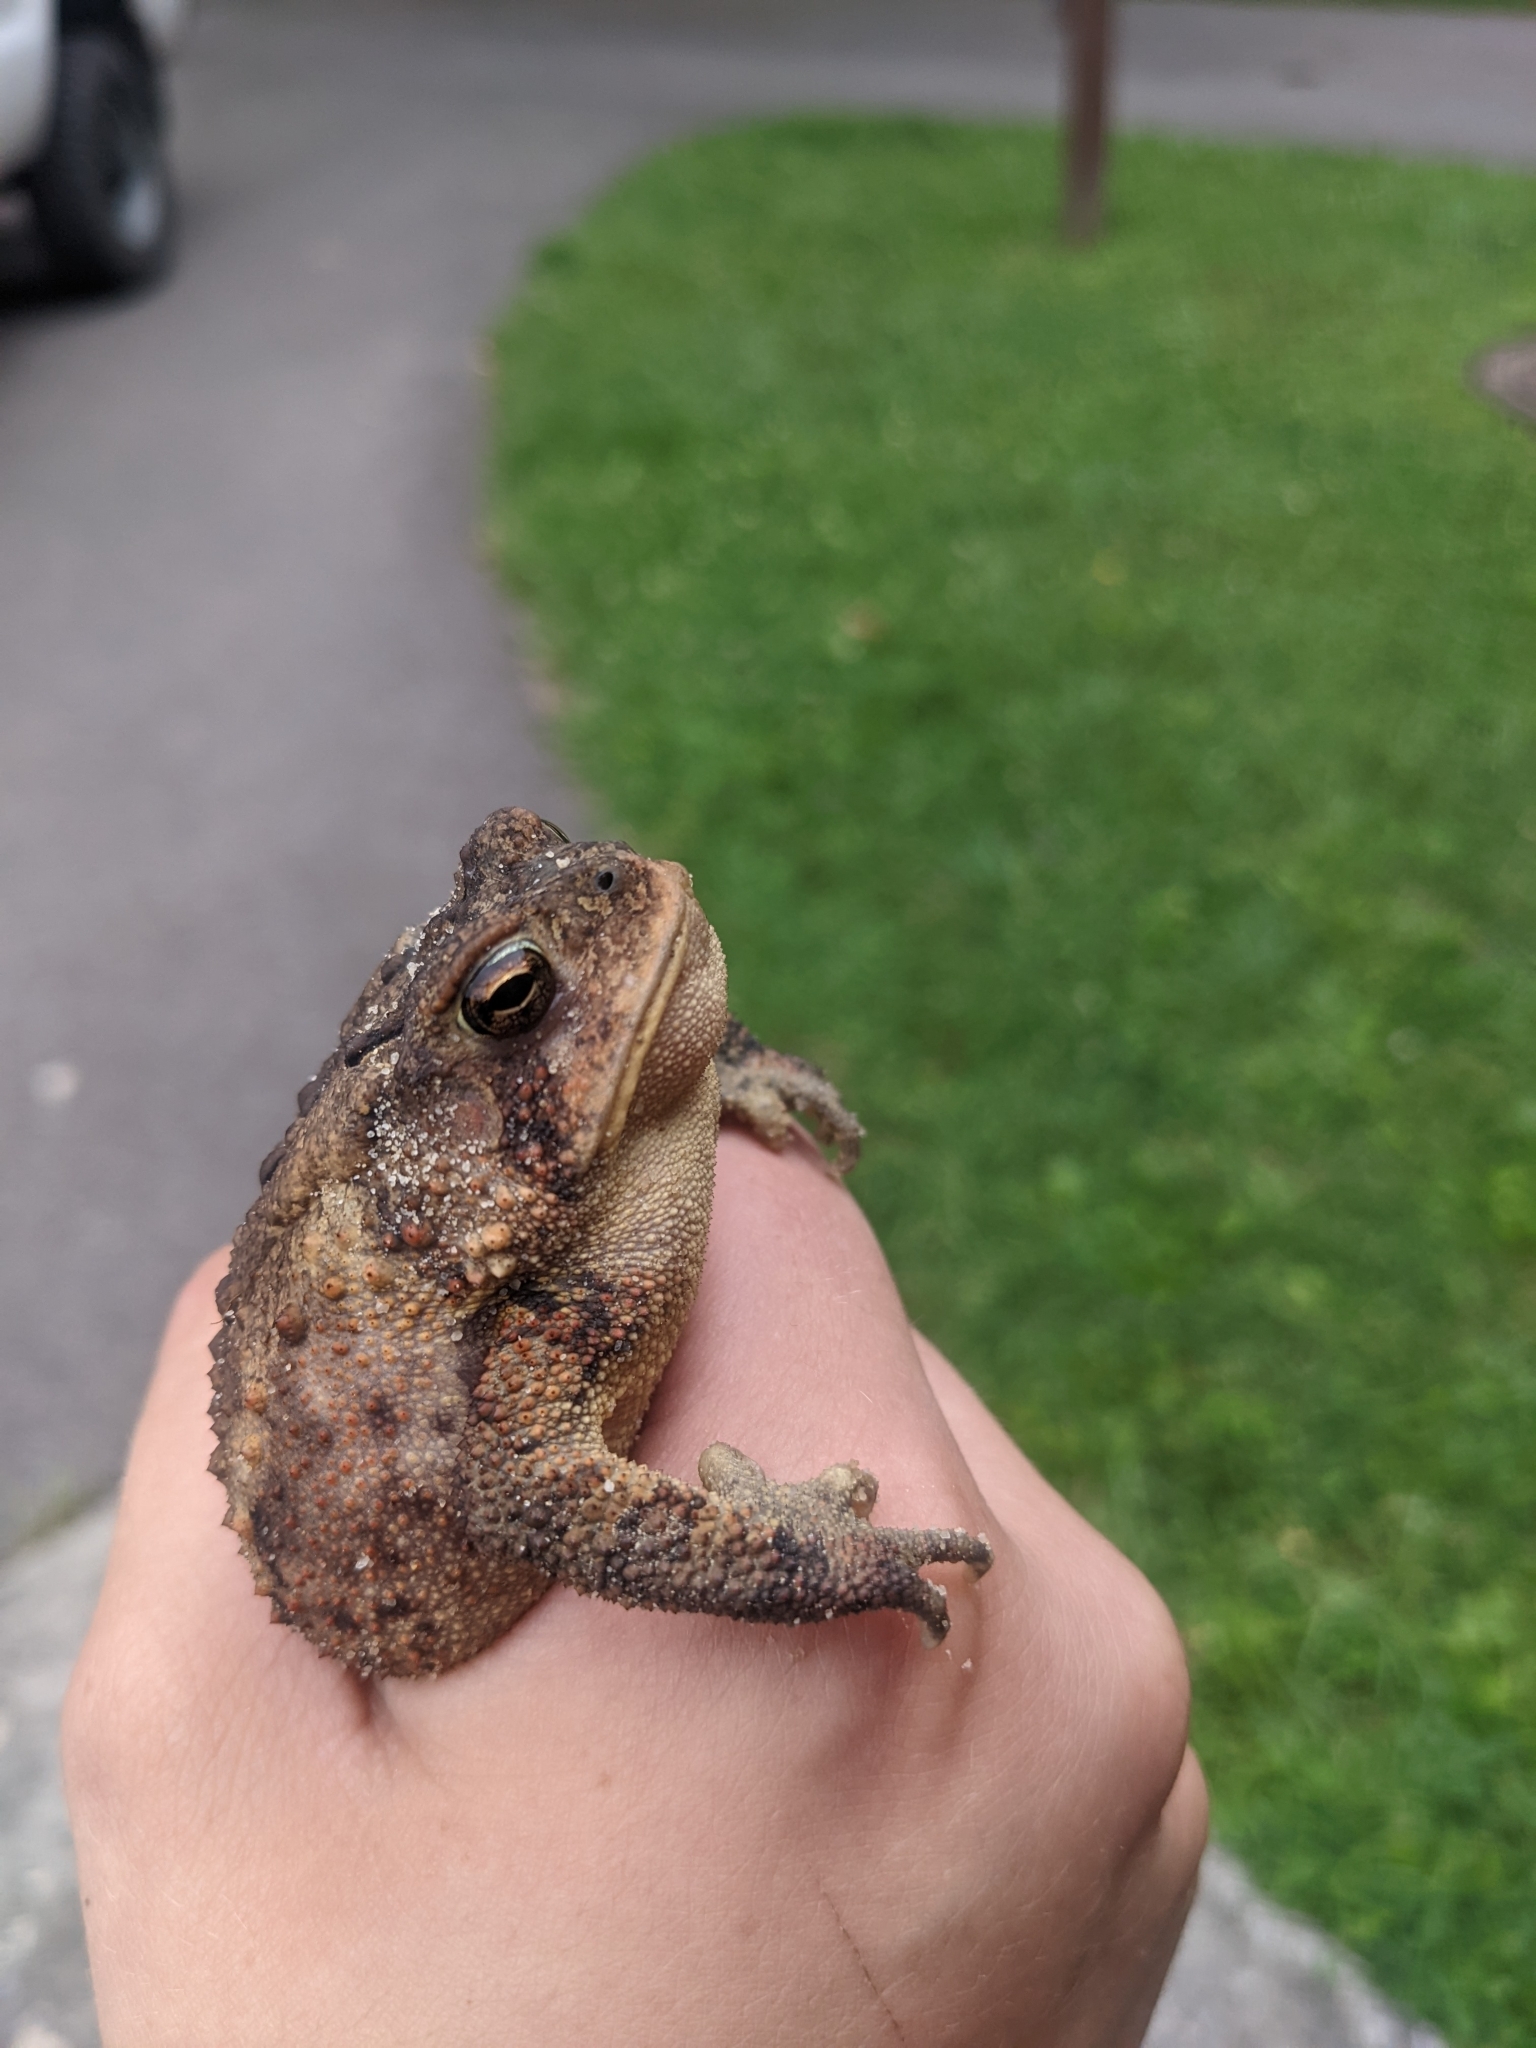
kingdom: Animalia
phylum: Chordata
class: Amphibia
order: Anura
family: Bufonidae
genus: Anaxyrus
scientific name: Anaxyrus americanus
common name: American toad
